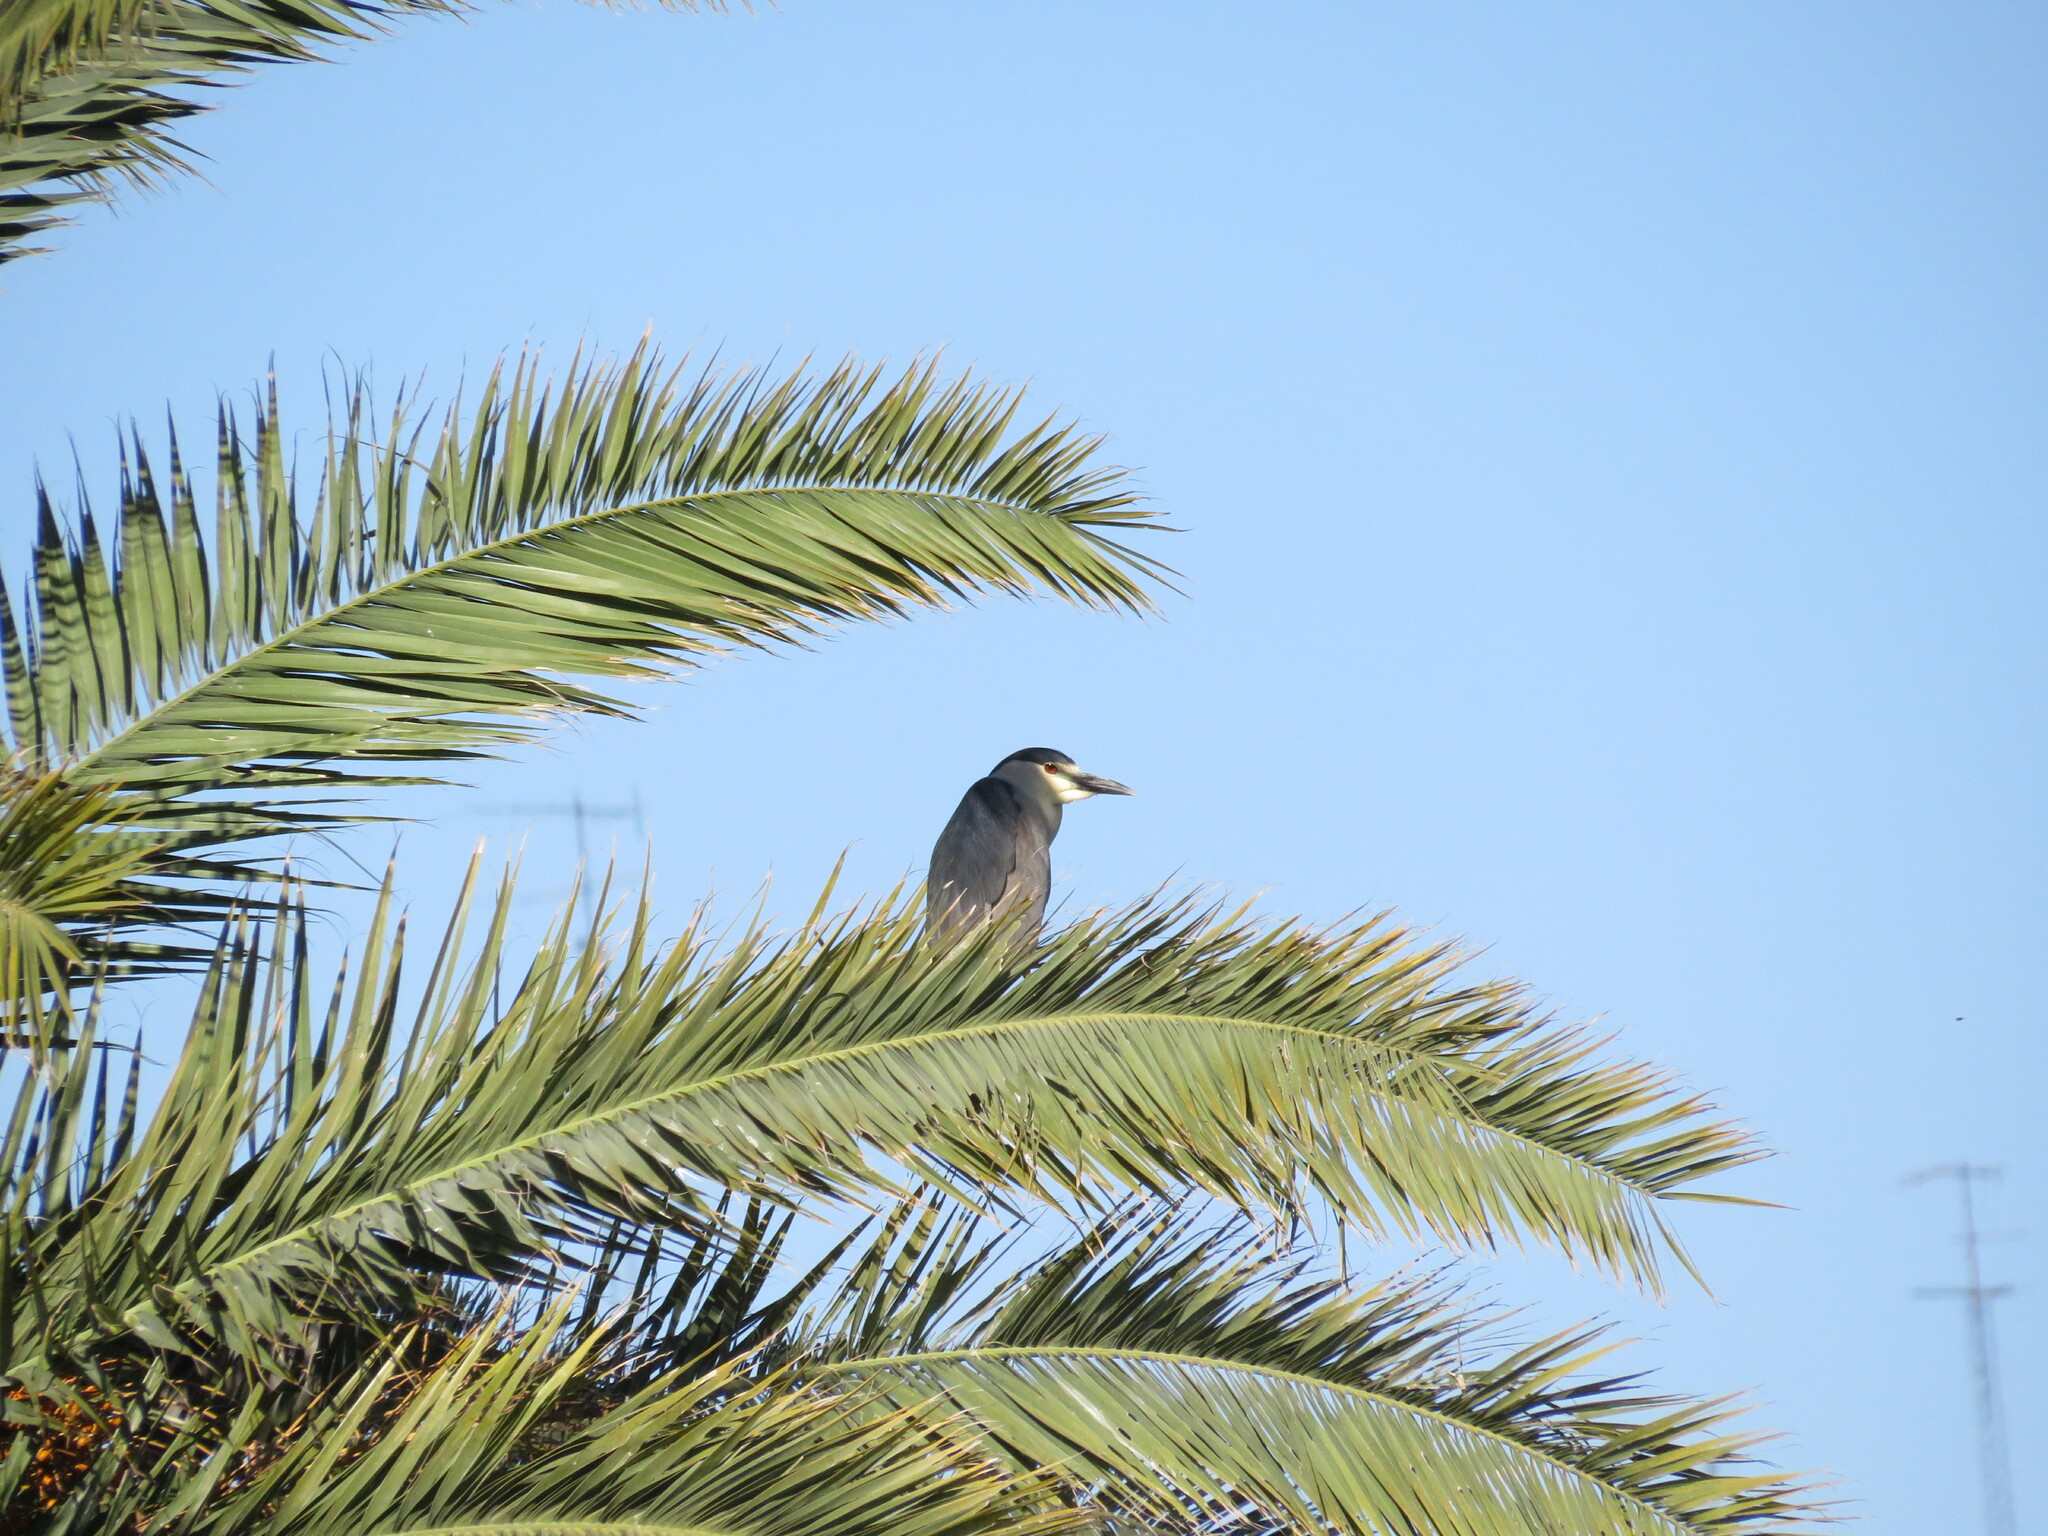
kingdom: Animalia
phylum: Chordata
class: Aves
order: Pelecaniformes
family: Ardeidae
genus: Nycticorax
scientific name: Nycticorax nycticorax
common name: Black-crowned night heron
